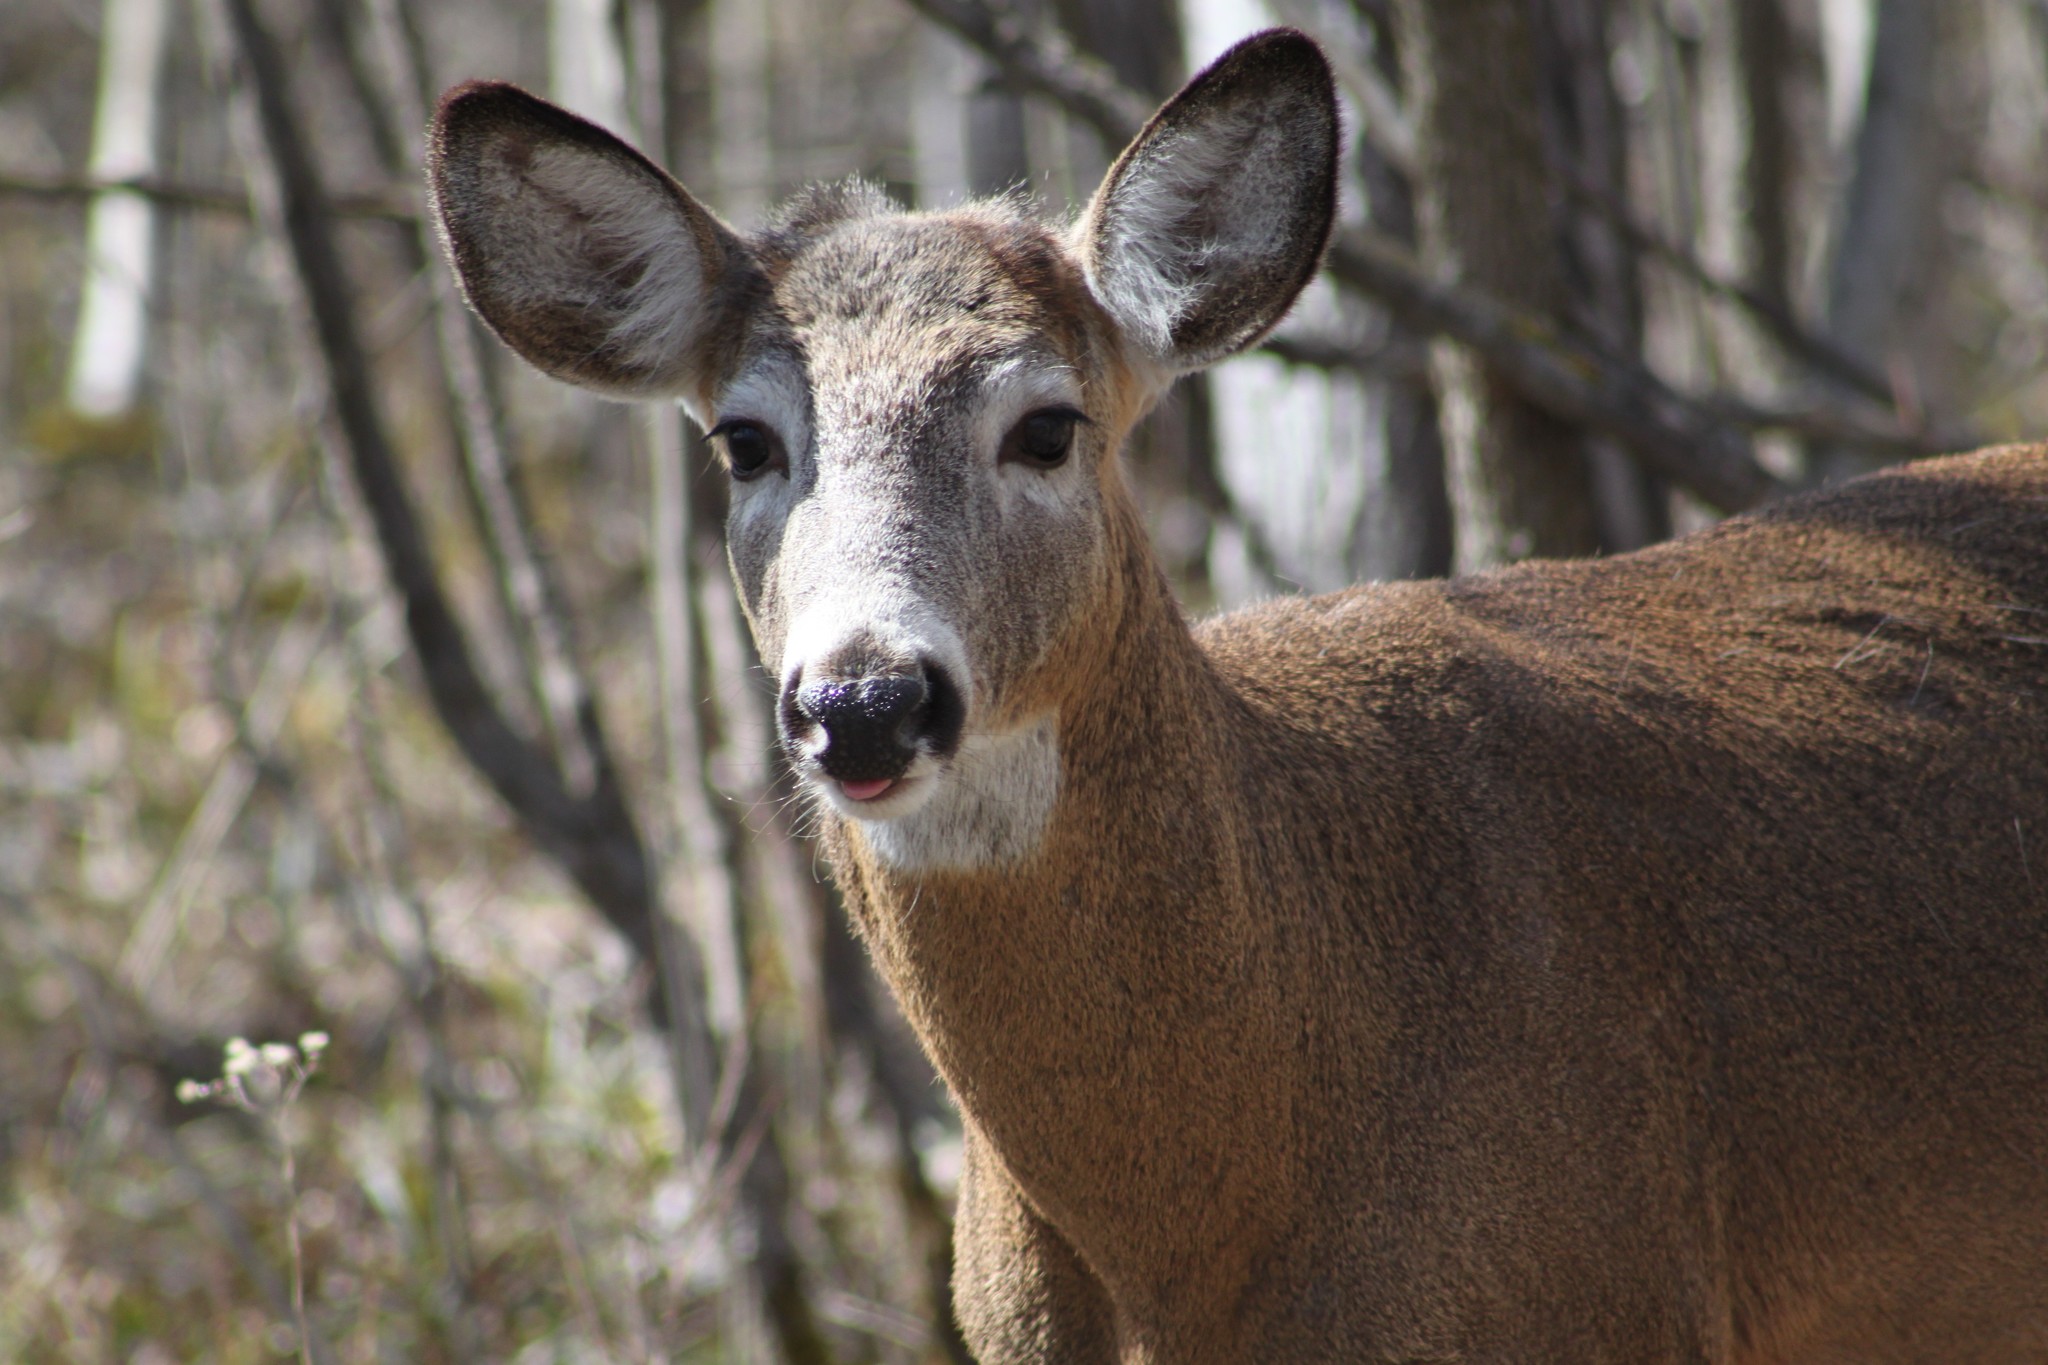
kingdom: Animalia
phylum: Chordata
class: Mammalia
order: Artiodactyla
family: Cervidae
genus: Odocoileus
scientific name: Odocoileus virginianus
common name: White-tailed deer
